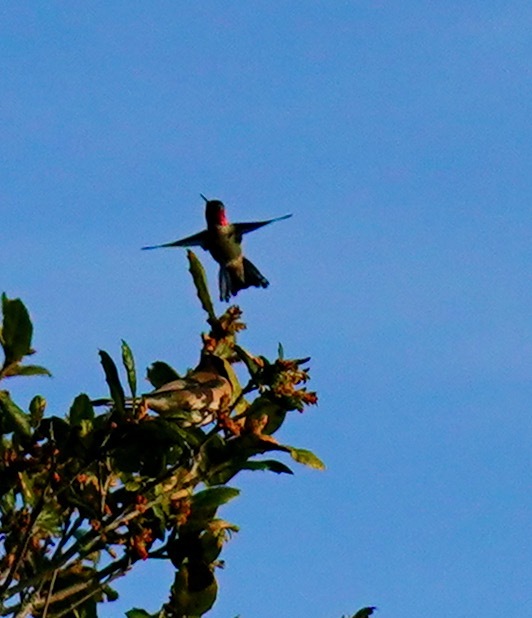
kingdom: Animalia
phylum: Chordata
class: Aves
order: Apodiformes
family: Trochilidae
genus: Calypte
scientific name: Calypte anna
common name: Anna's hummingbird
